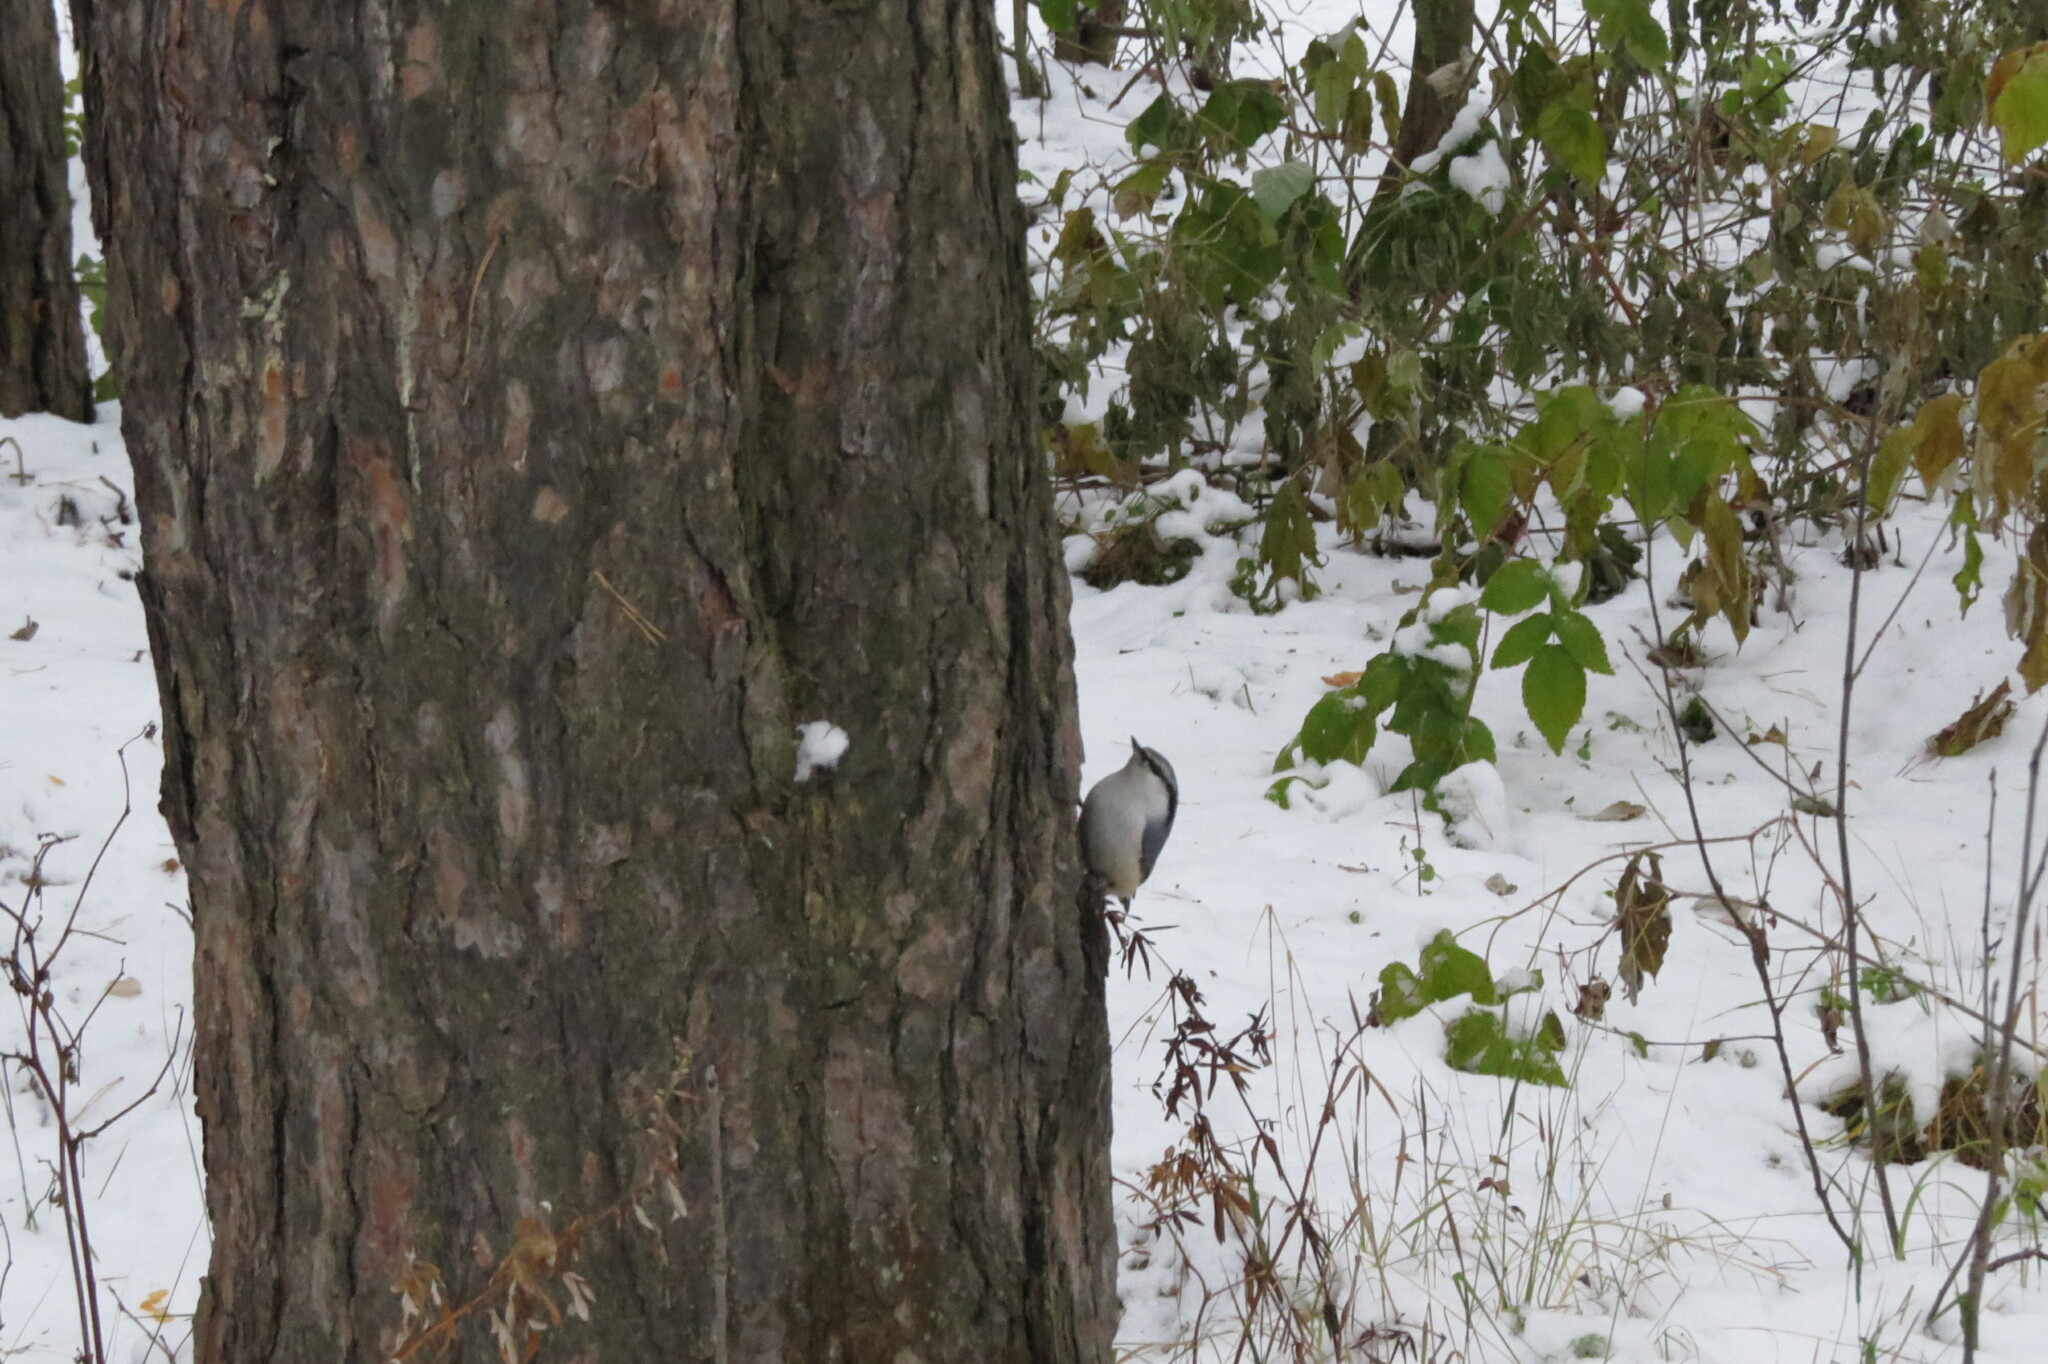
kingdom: Animalia
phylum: Chordata
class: Aves
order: Passeriformes
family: Sittidae
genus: Sitta
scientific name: Sitta europaea
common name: Eurasian nuthatch
